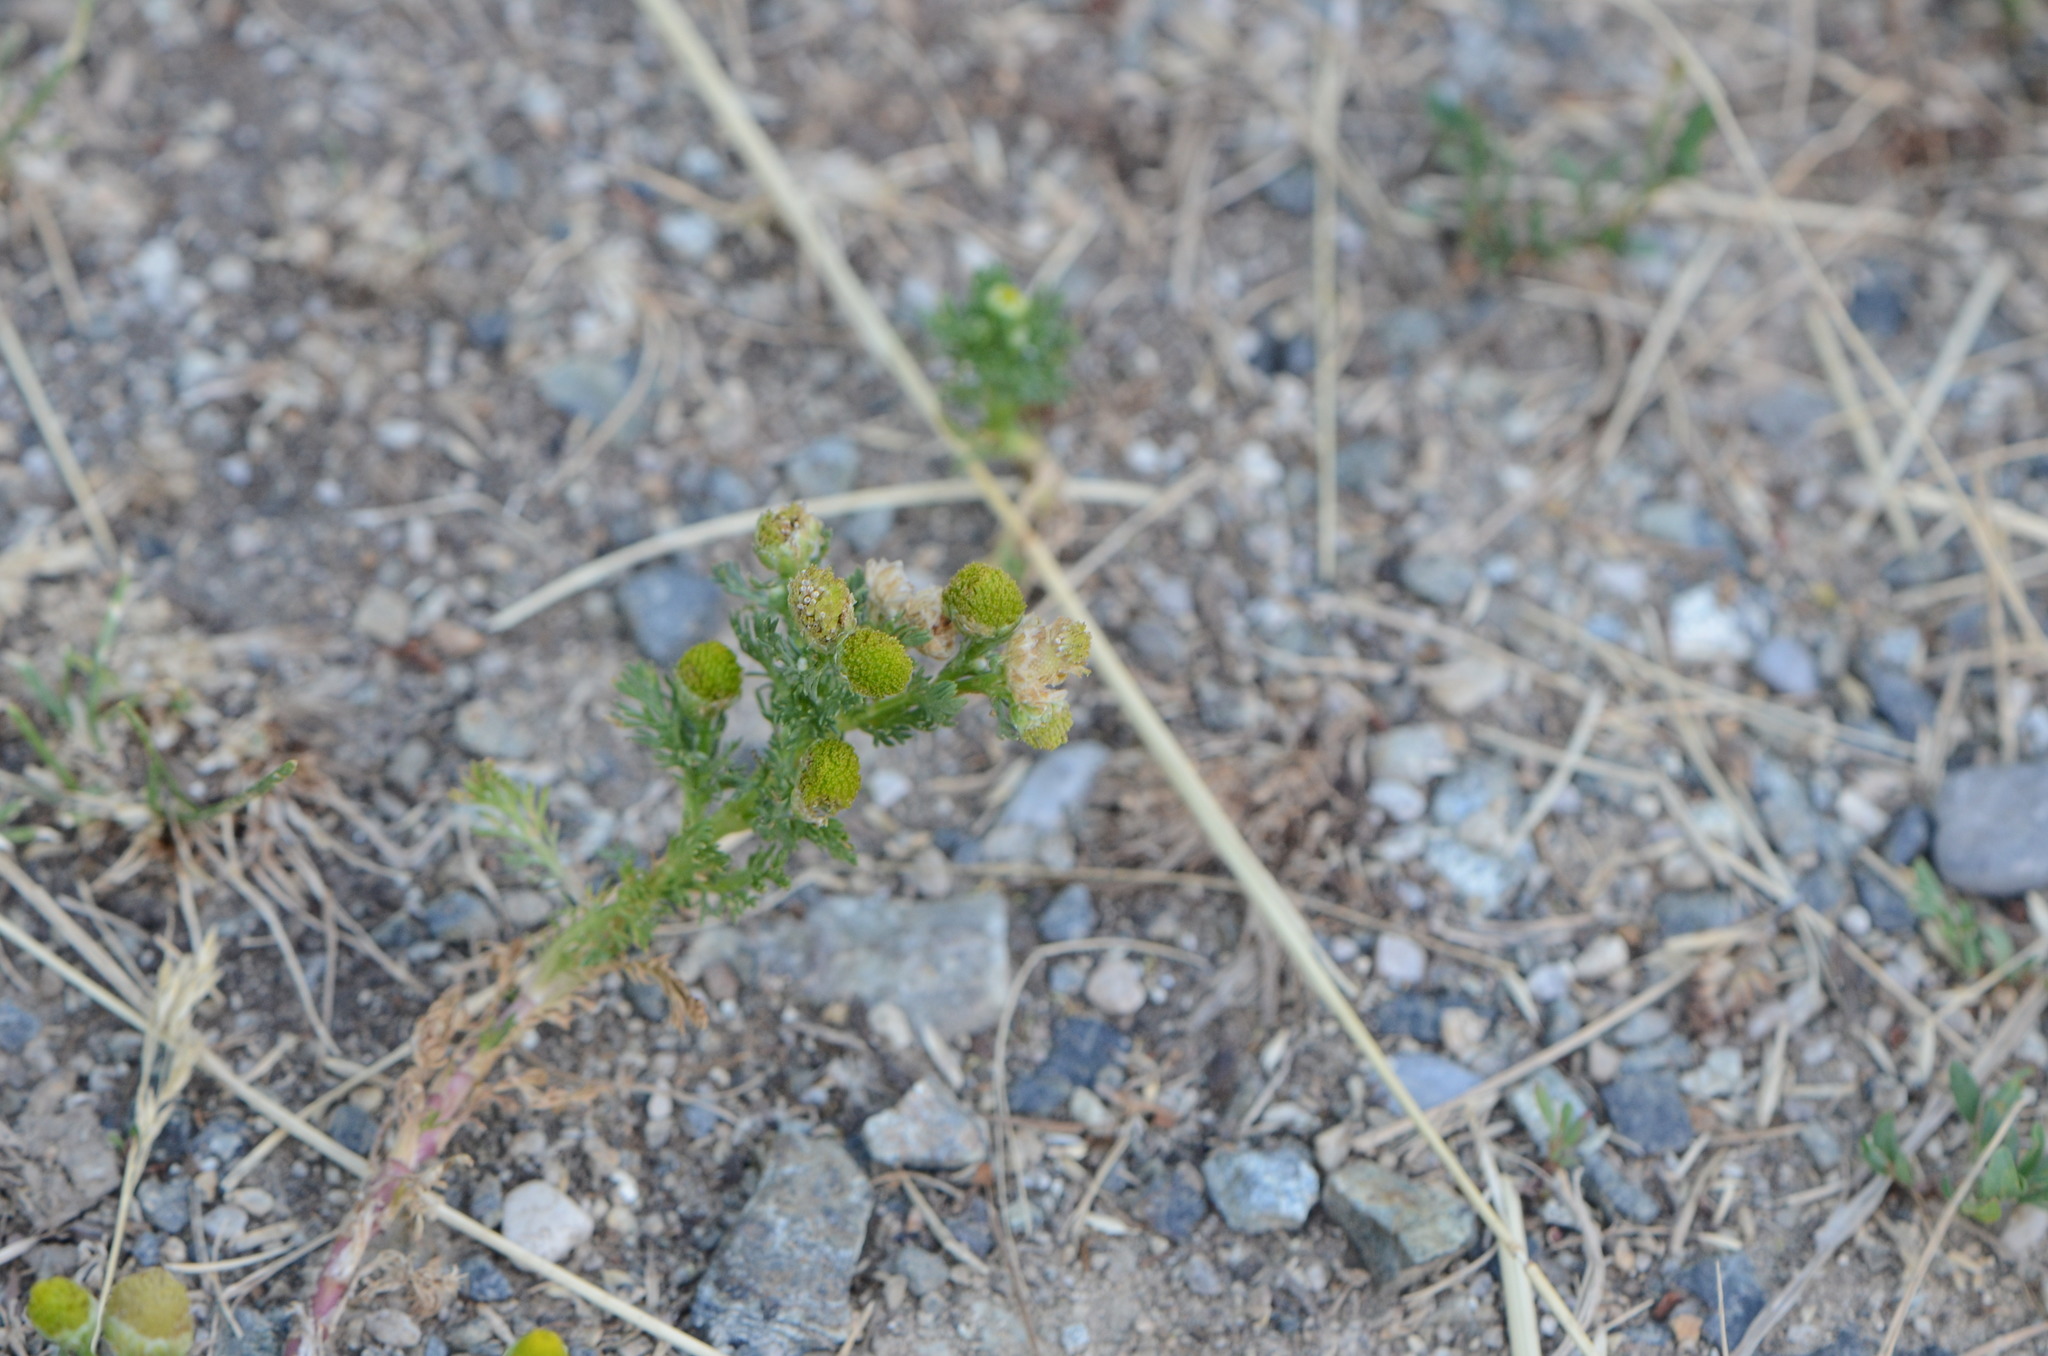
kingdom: Plantae
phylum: Tracheophyta
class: Magnoliopsida
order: Asterales
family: Asteraceae
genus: Matricaria
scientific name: Matricaria discoidea
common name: Disc mayweed
